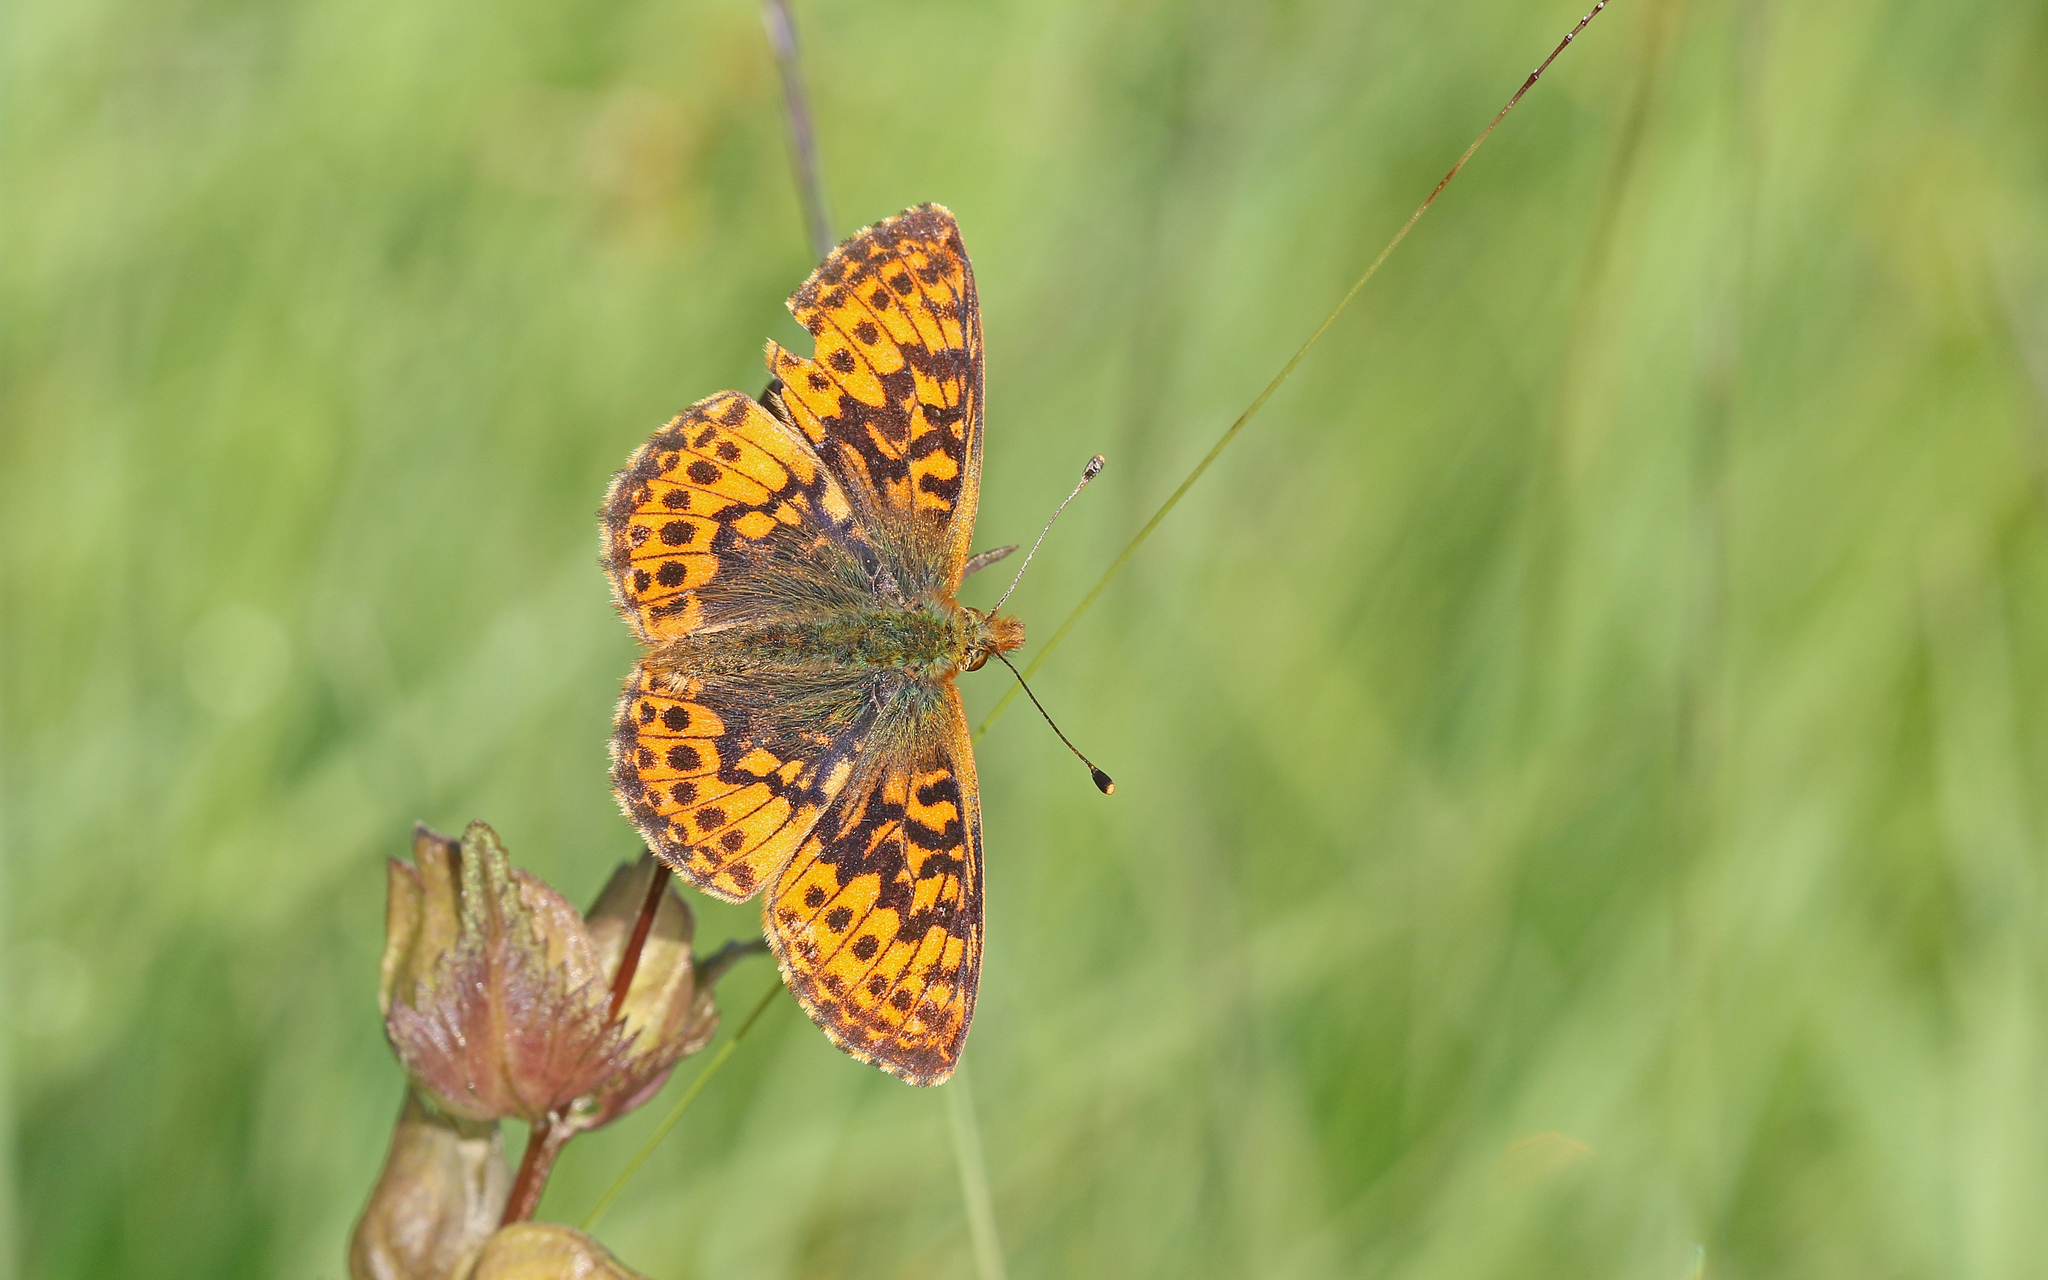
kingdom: Animalia
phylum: Arthropoda
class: Insecta
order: Lepidoptera
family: Nymphalidae
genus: Boloria
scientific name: Boloria aquilonaris
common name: Cranberry fritillary
